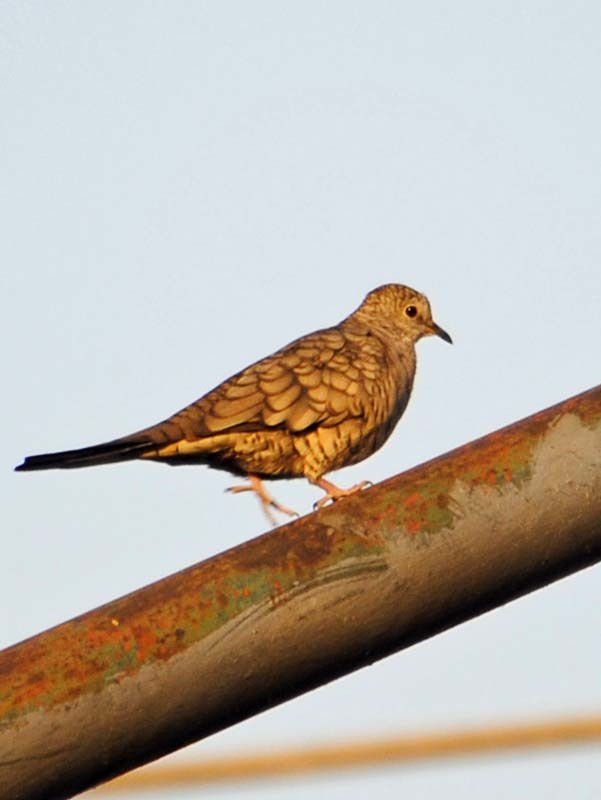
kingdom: Animalia
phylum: Chordata
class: Aves
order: Columbiformes
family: Columbidae
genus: Columbina
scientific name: Columbina inca
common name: Inca dove
